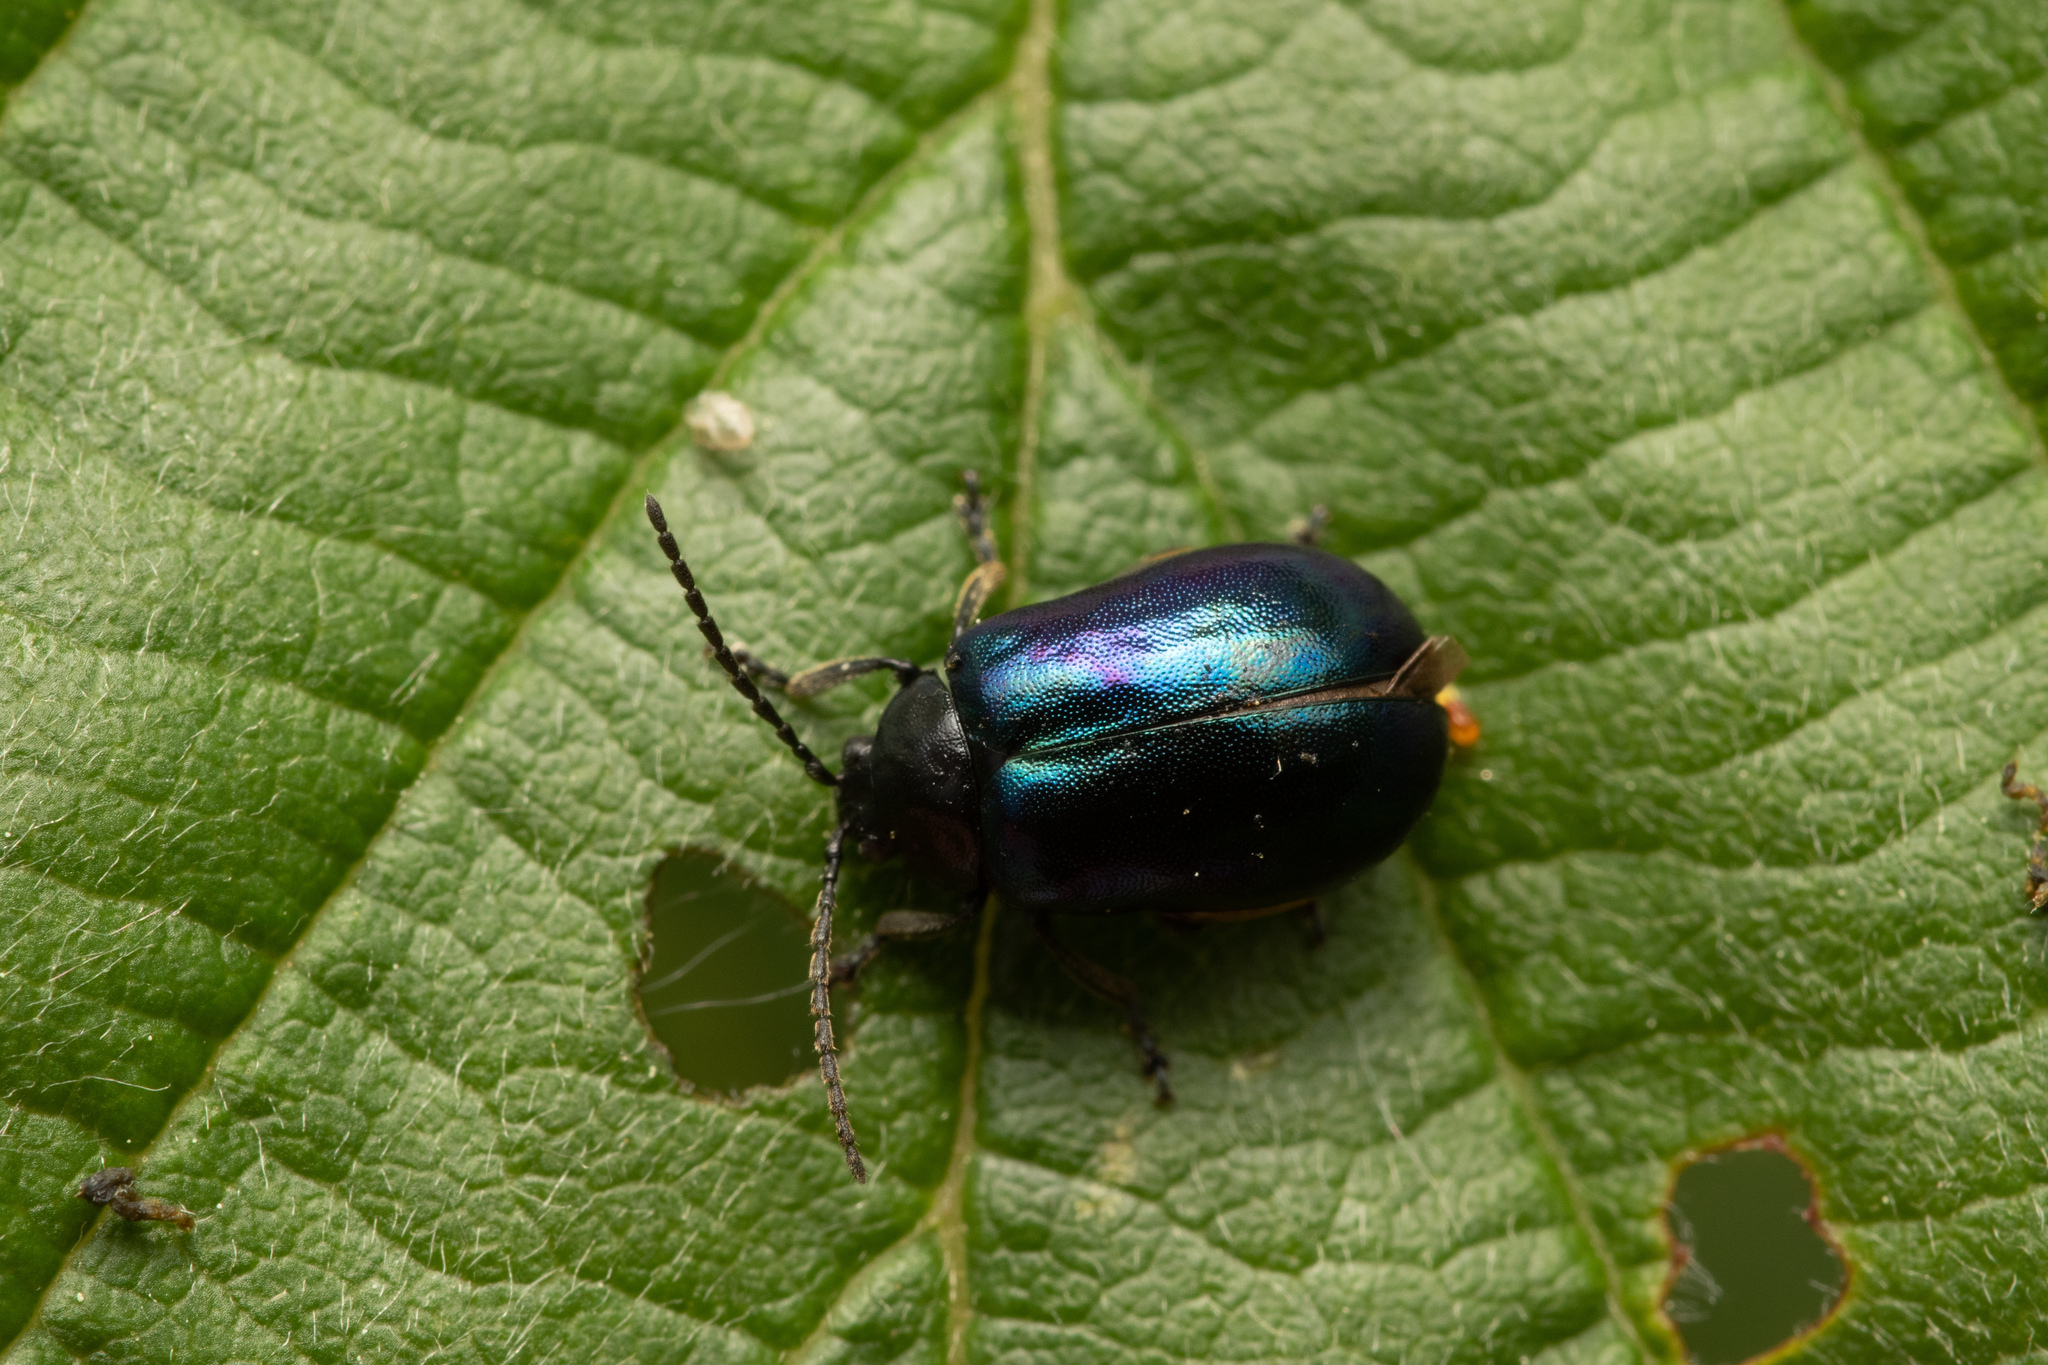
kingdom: Animalia
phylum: Arthropoda
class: Insecta
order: Coleoptera
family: Chrysomelidae
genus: Agelastica
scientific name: Agelastica alni
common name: Alder leaf beetle
